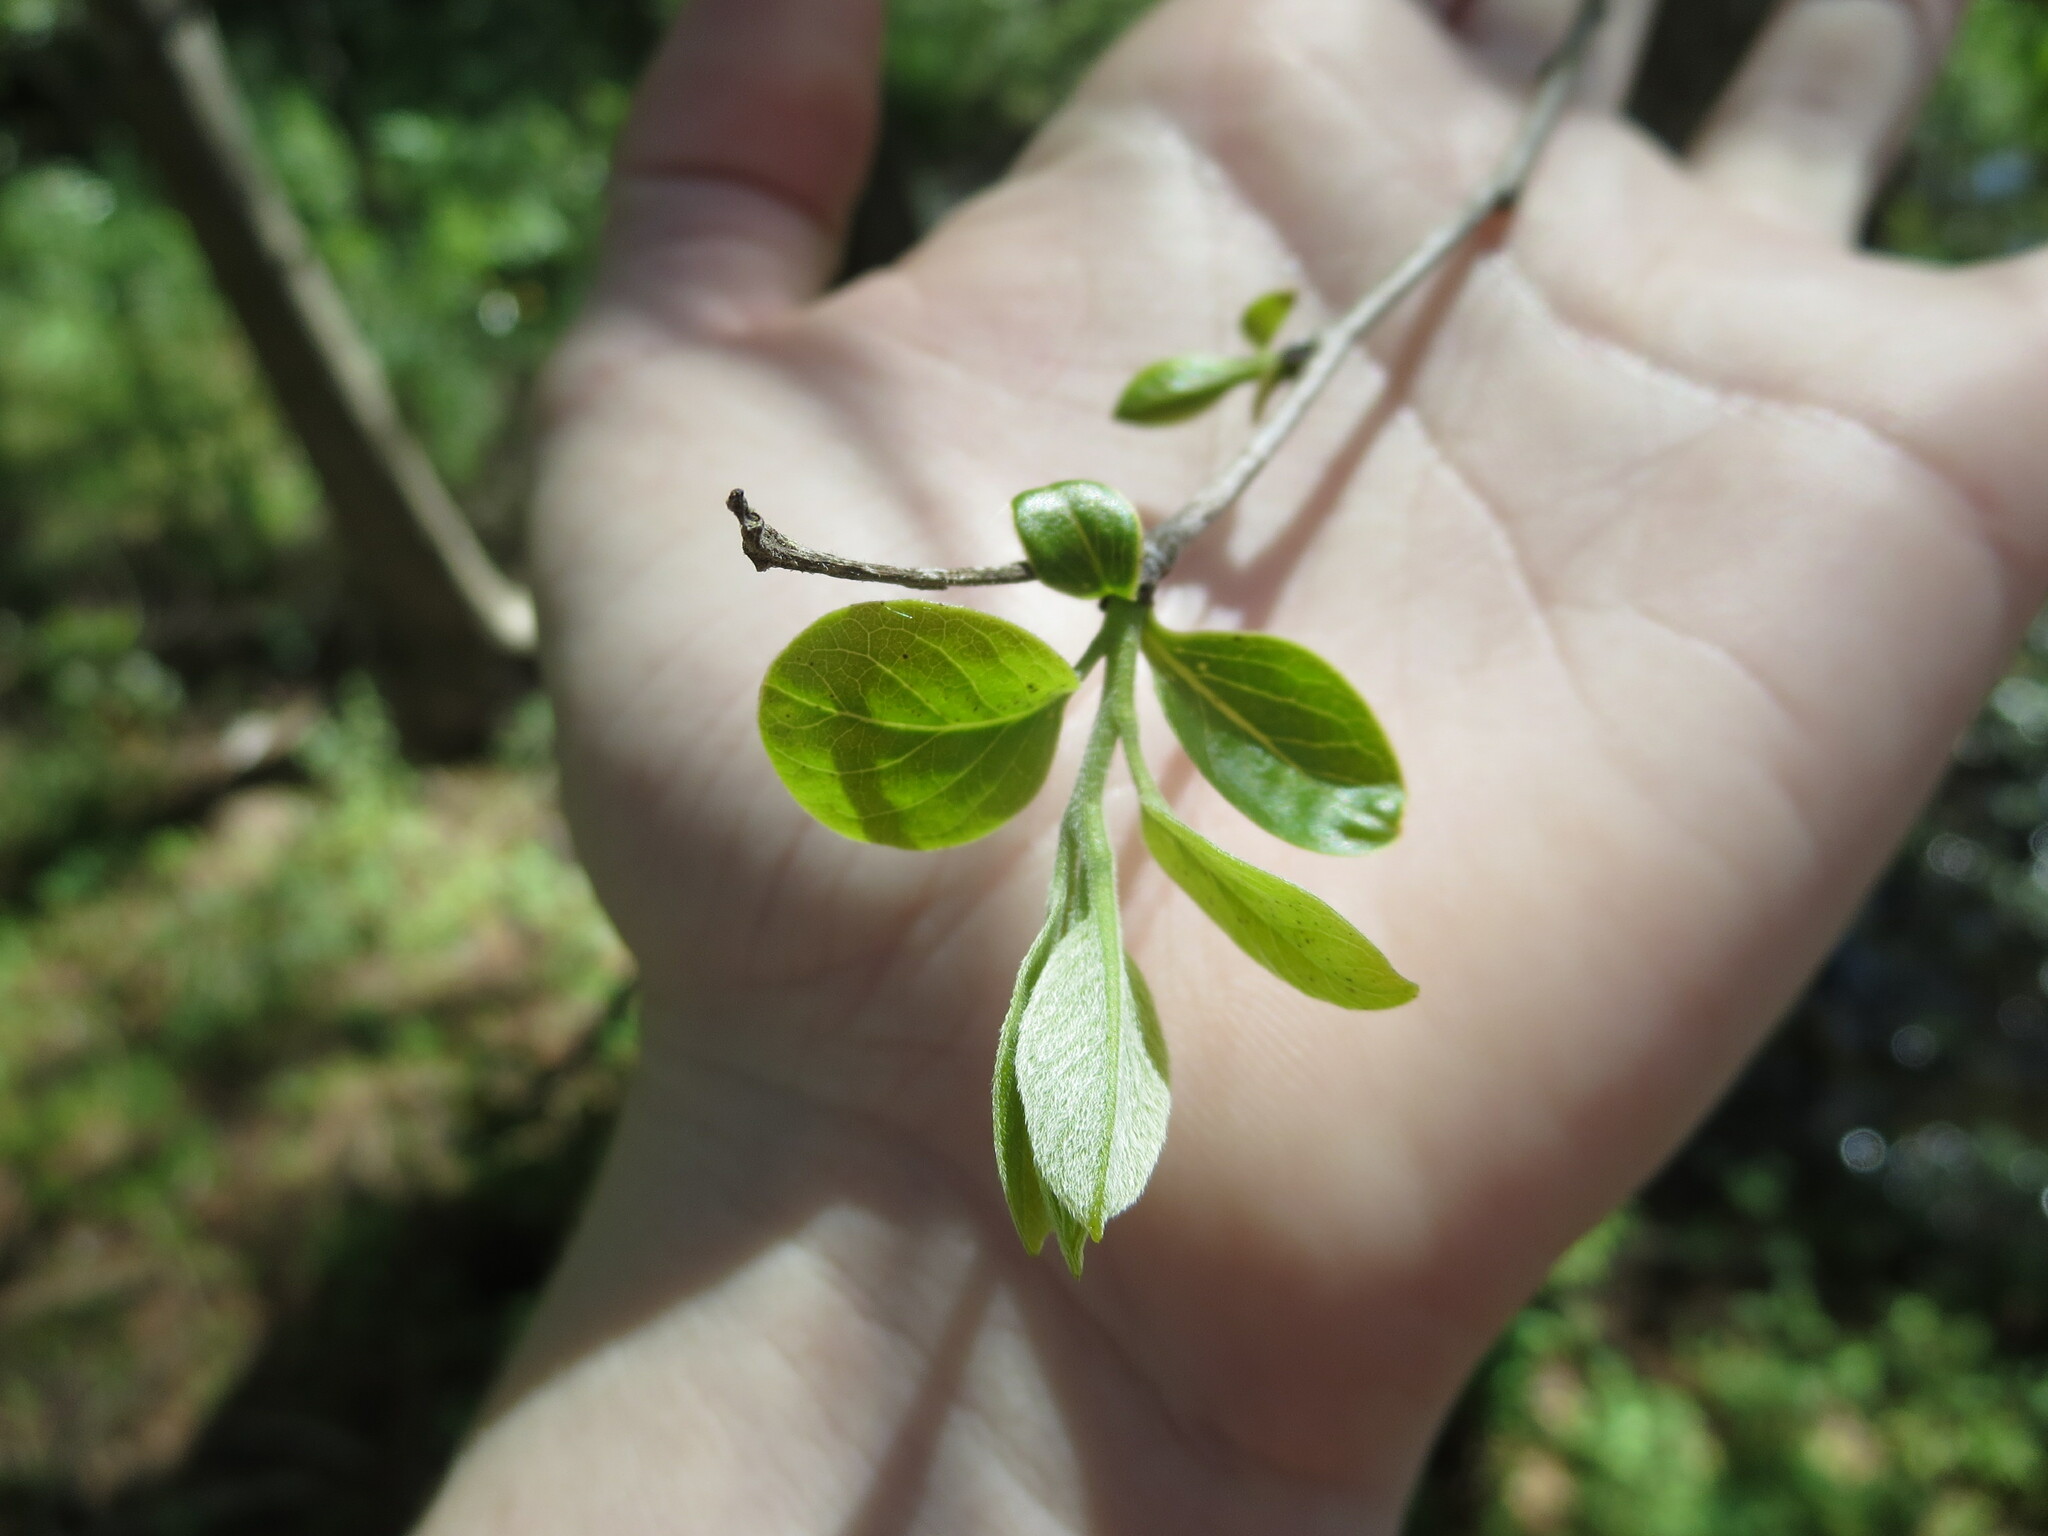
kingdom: Plantae
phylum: Tracheophyta
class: Magnoliopsida
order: Ericales
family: Ebenaceae
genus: Diospyros
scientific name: Diospyros virginiana
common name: Persimmon
